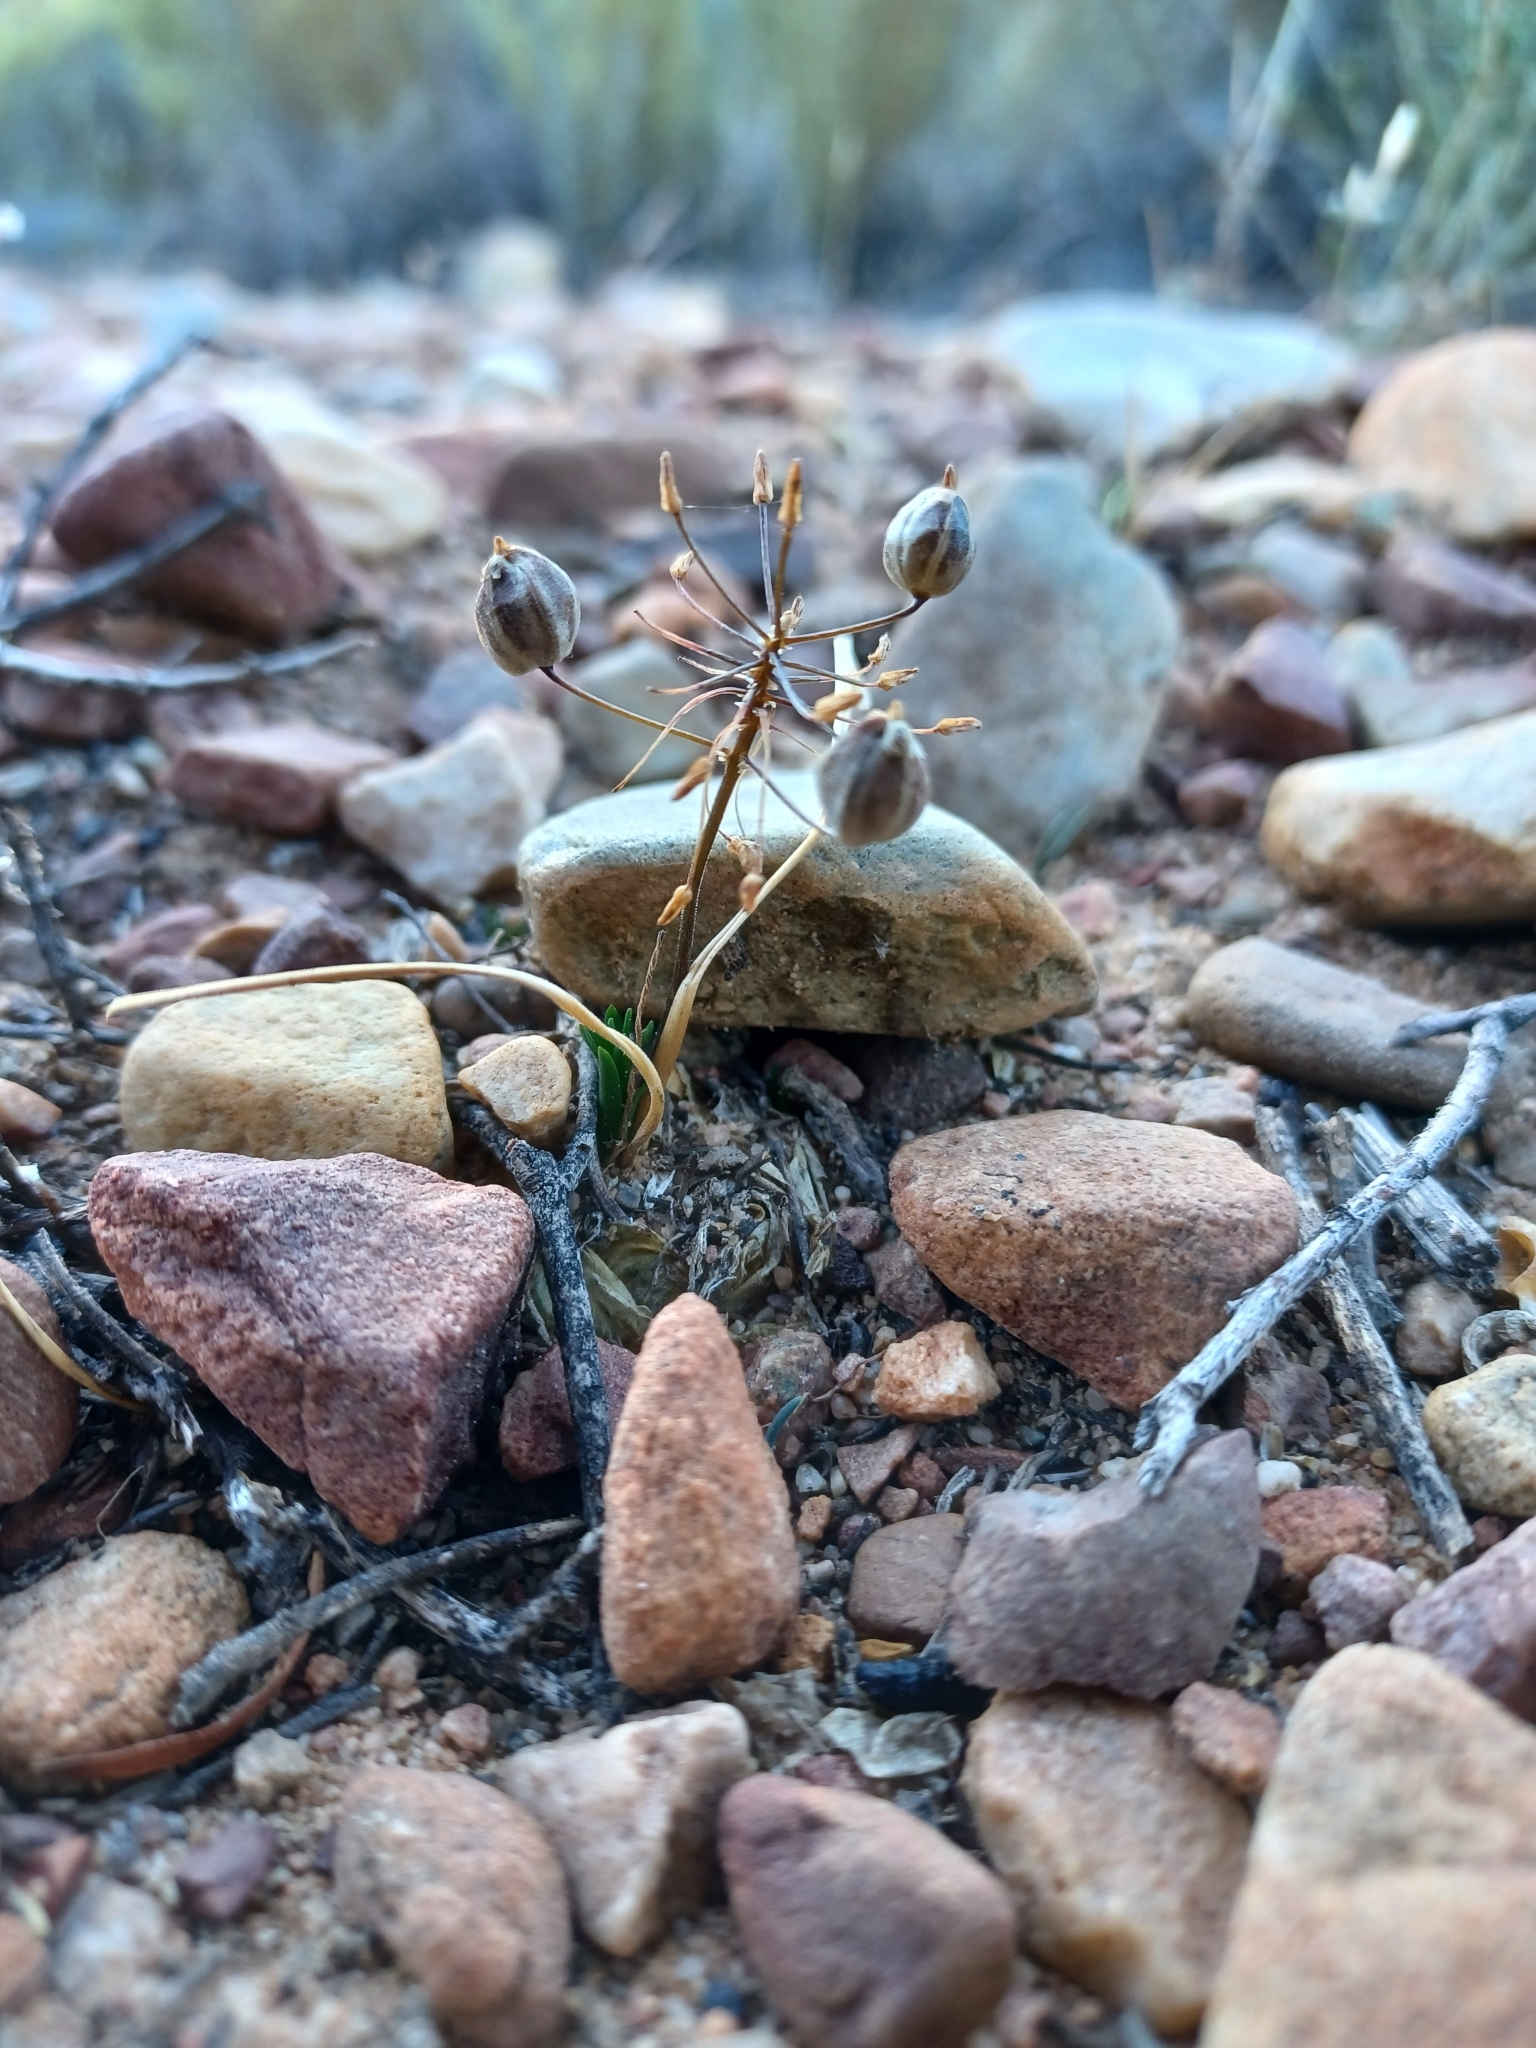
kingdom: Plantae
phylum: Tracheophyta
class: Liliopsida
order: Asparagales
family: Asparagaceae
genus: Fusifilum
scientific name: Fusifilum physodes
